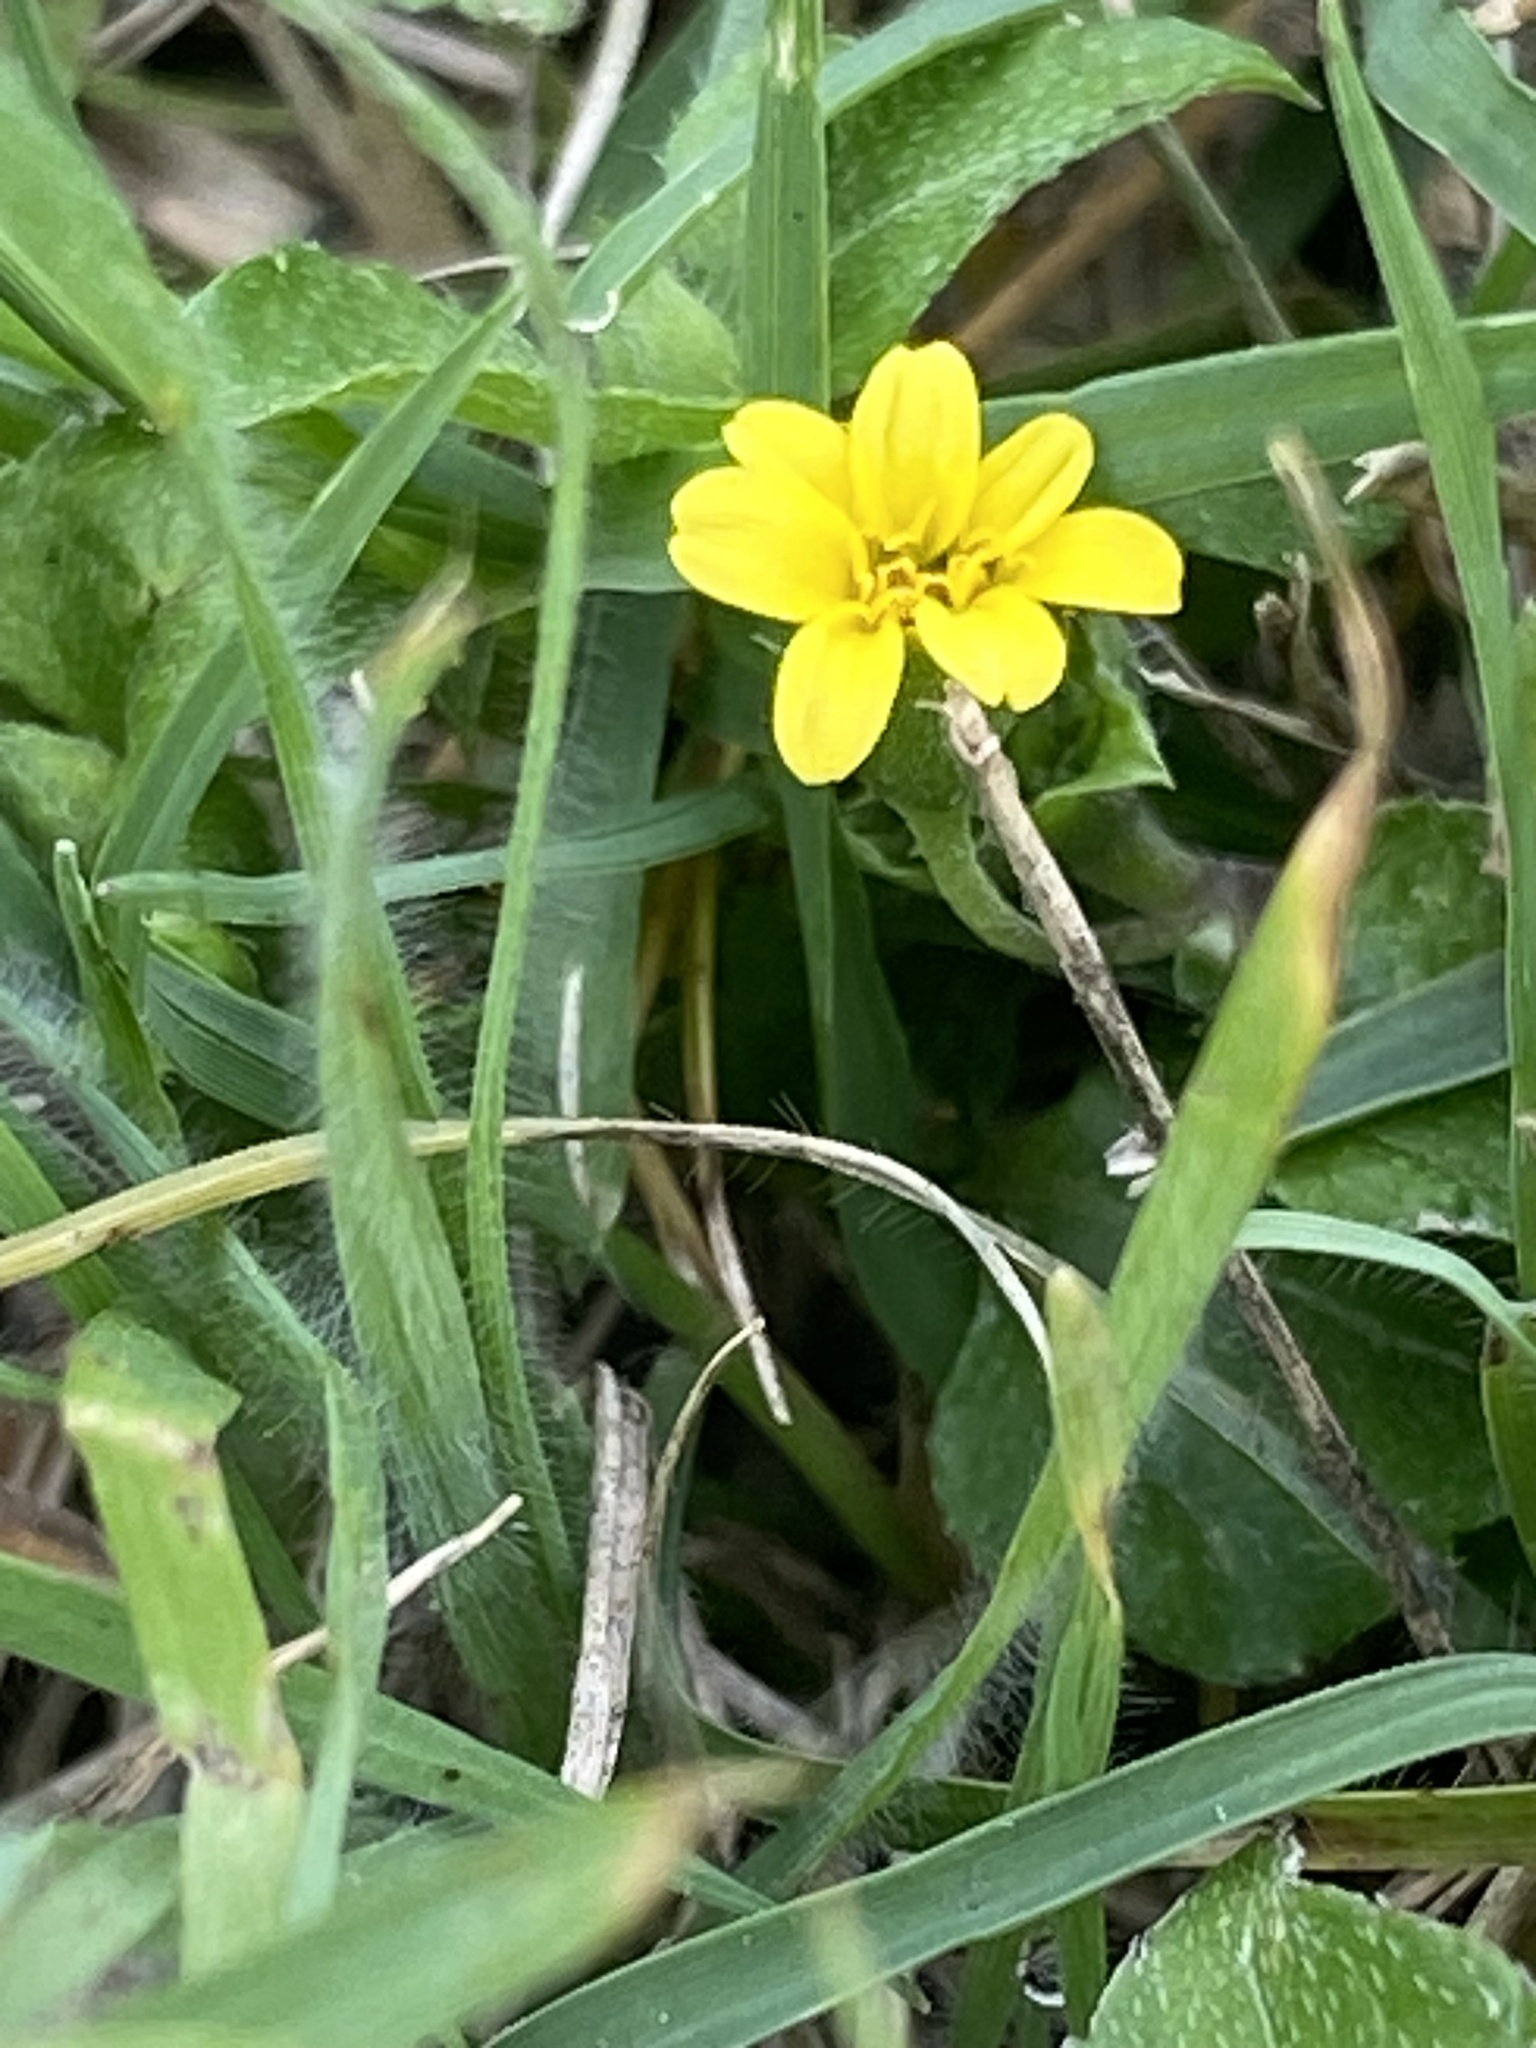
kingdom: Plantae
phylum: Tracheophyta
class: Magnoliopsida
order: Asterales
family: Asteraceae
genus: Calyptocarpus
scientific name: Calyptocarpus vialis
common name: Straggler daisy
